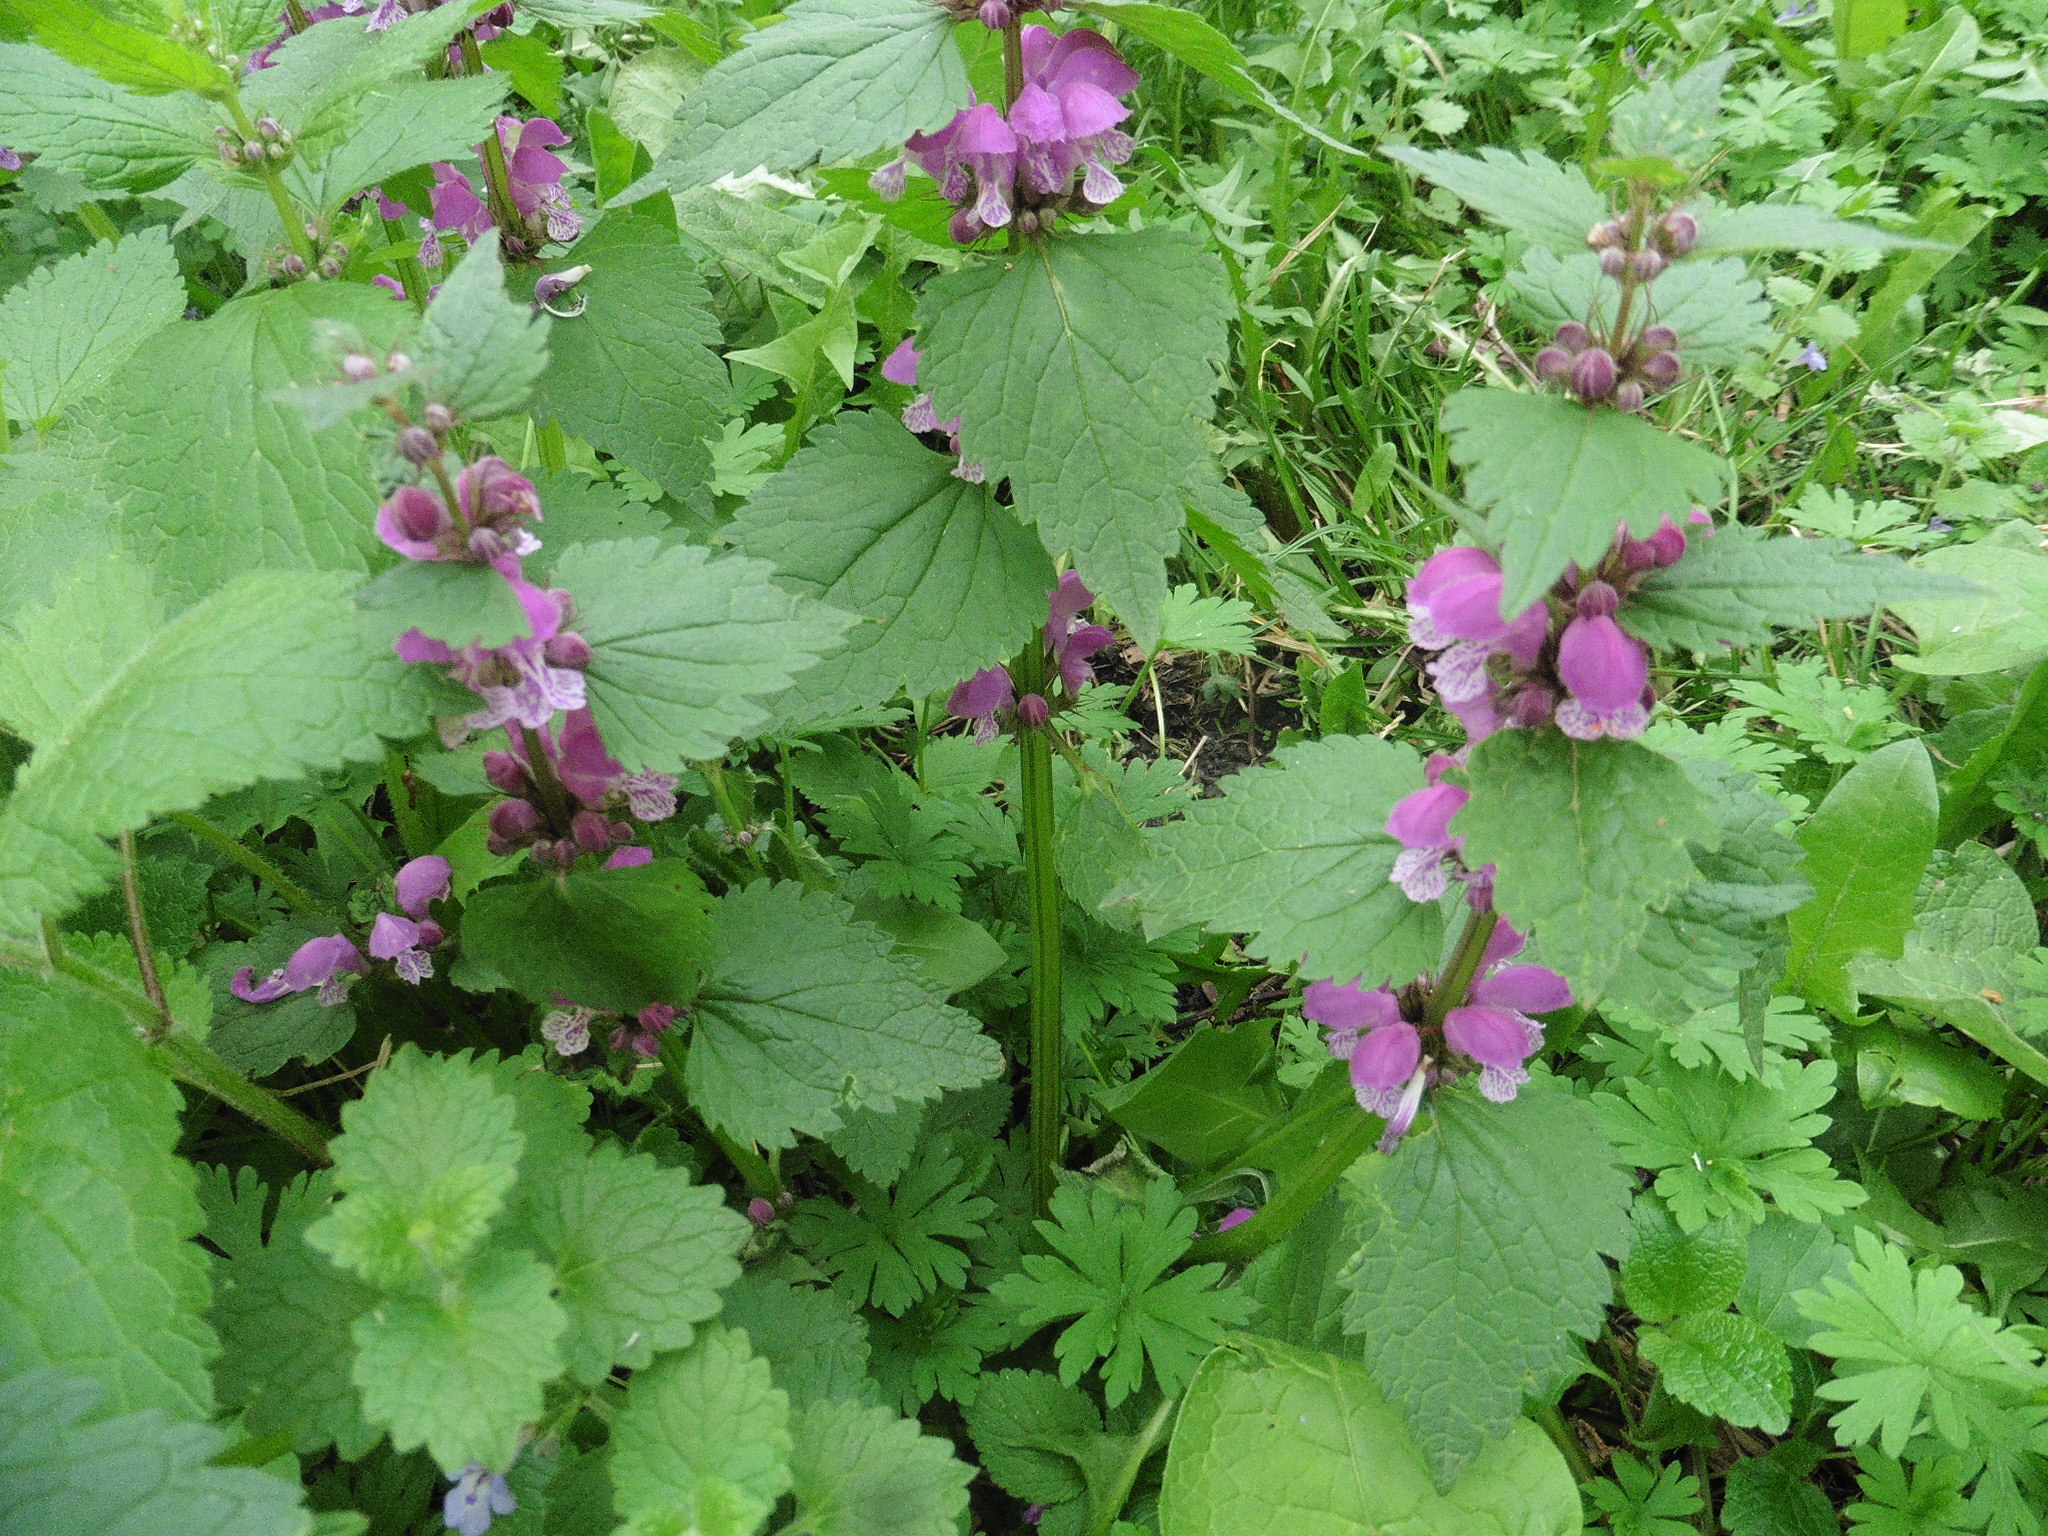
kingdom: Plantae
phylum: Tracheophyta
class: Magnoliopsida
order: Lamiales
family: Lamiaceae
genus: Lamium
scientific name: Lamium maculatum
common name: Spotted dead-nettle
